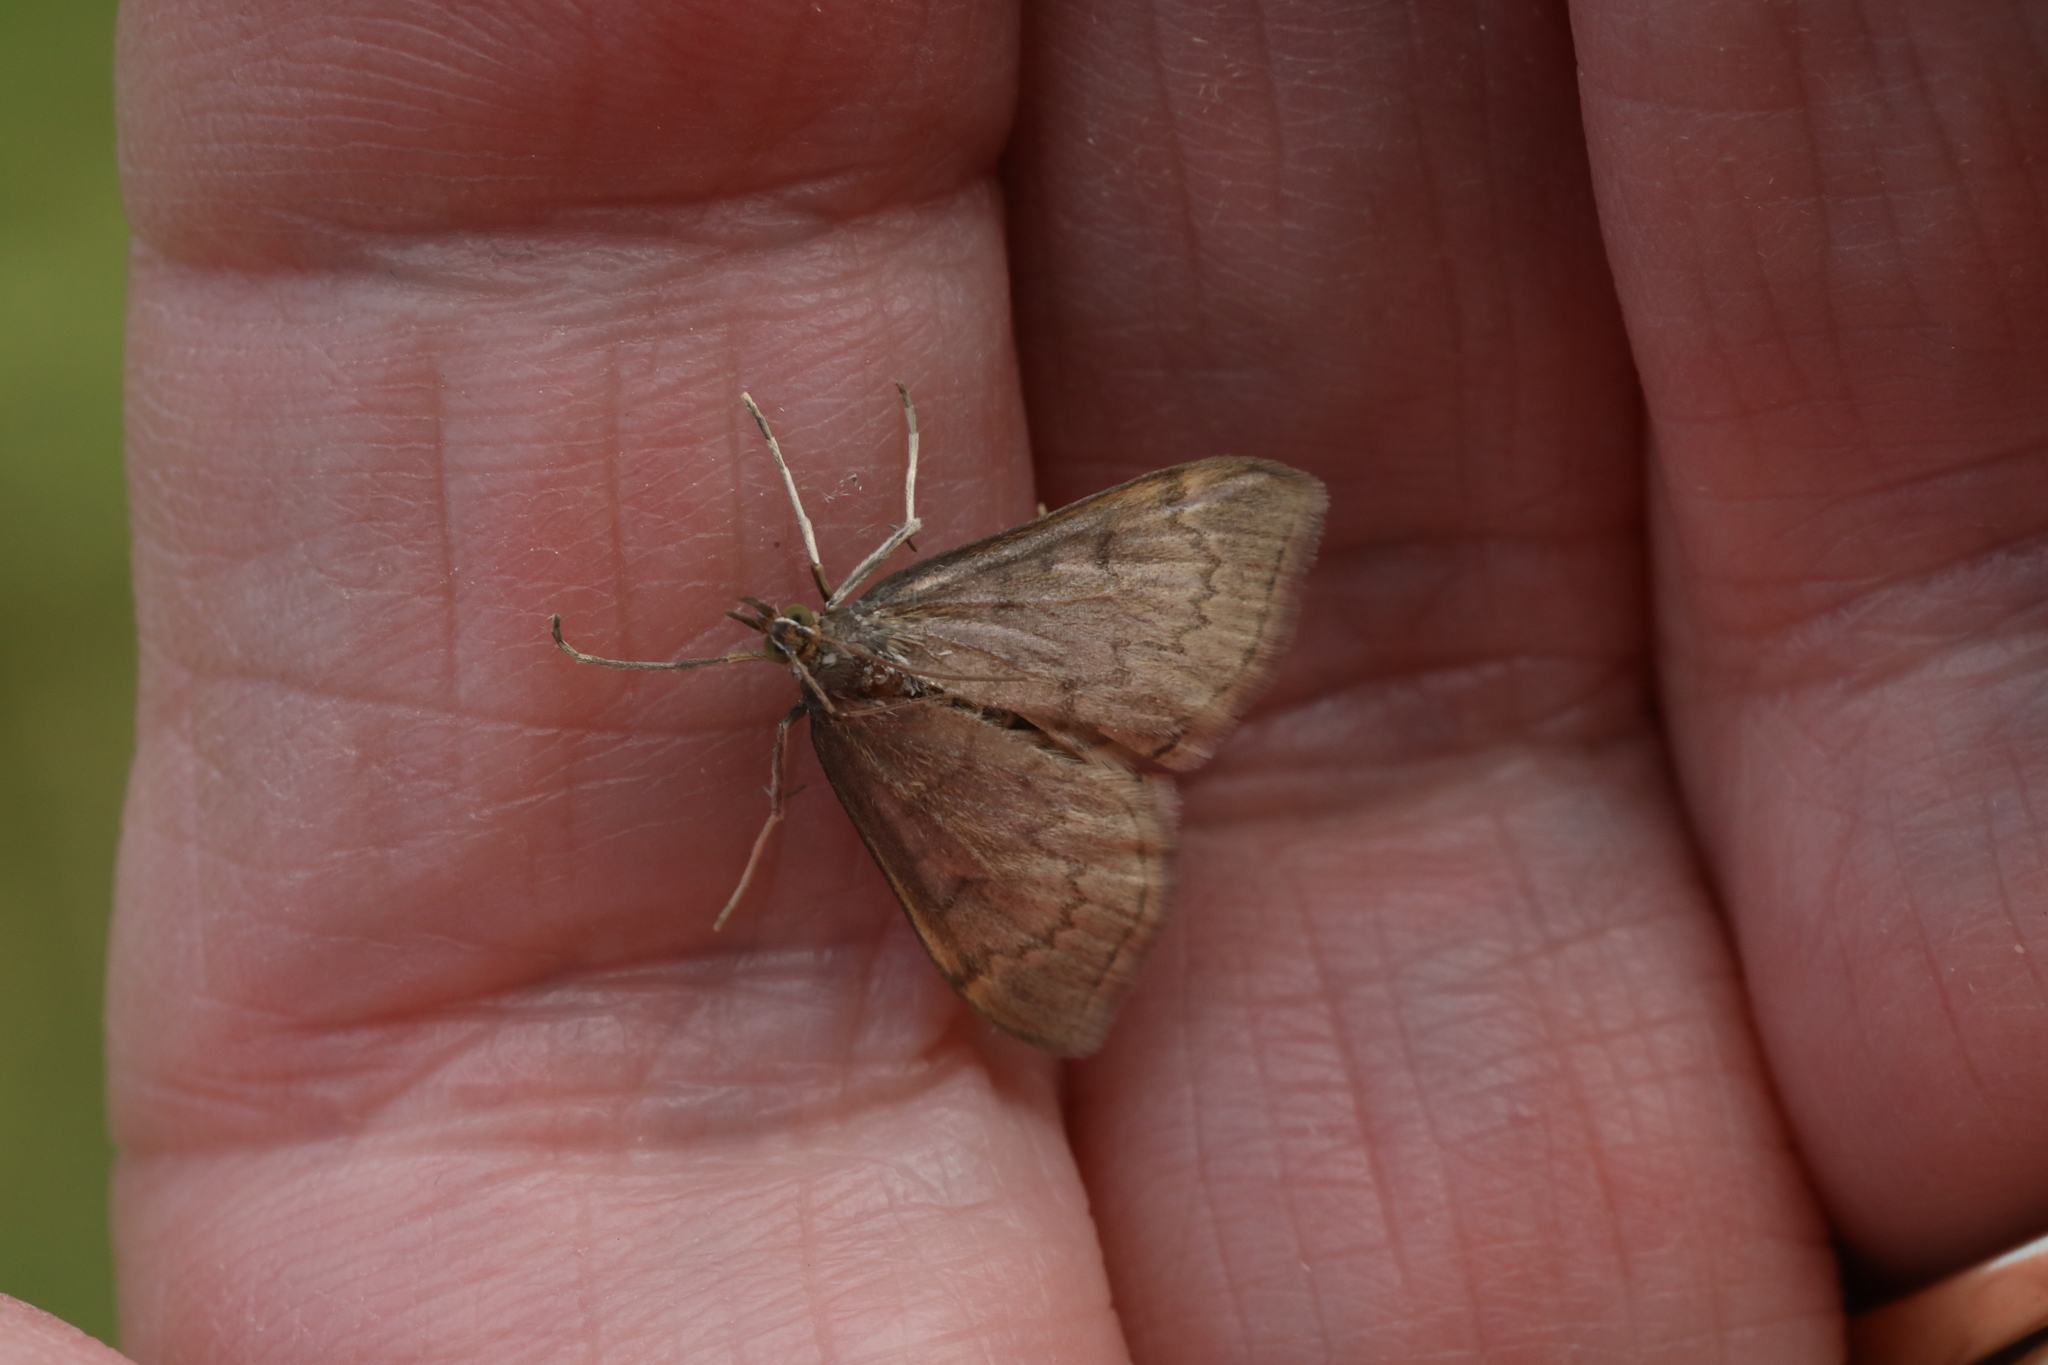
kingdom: Animalia
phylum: Arthropoda
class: Insecta
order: Lepidoptera
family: Crambidae
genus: Anania
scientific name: Anania fuscalis
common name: Cinerous pearl
